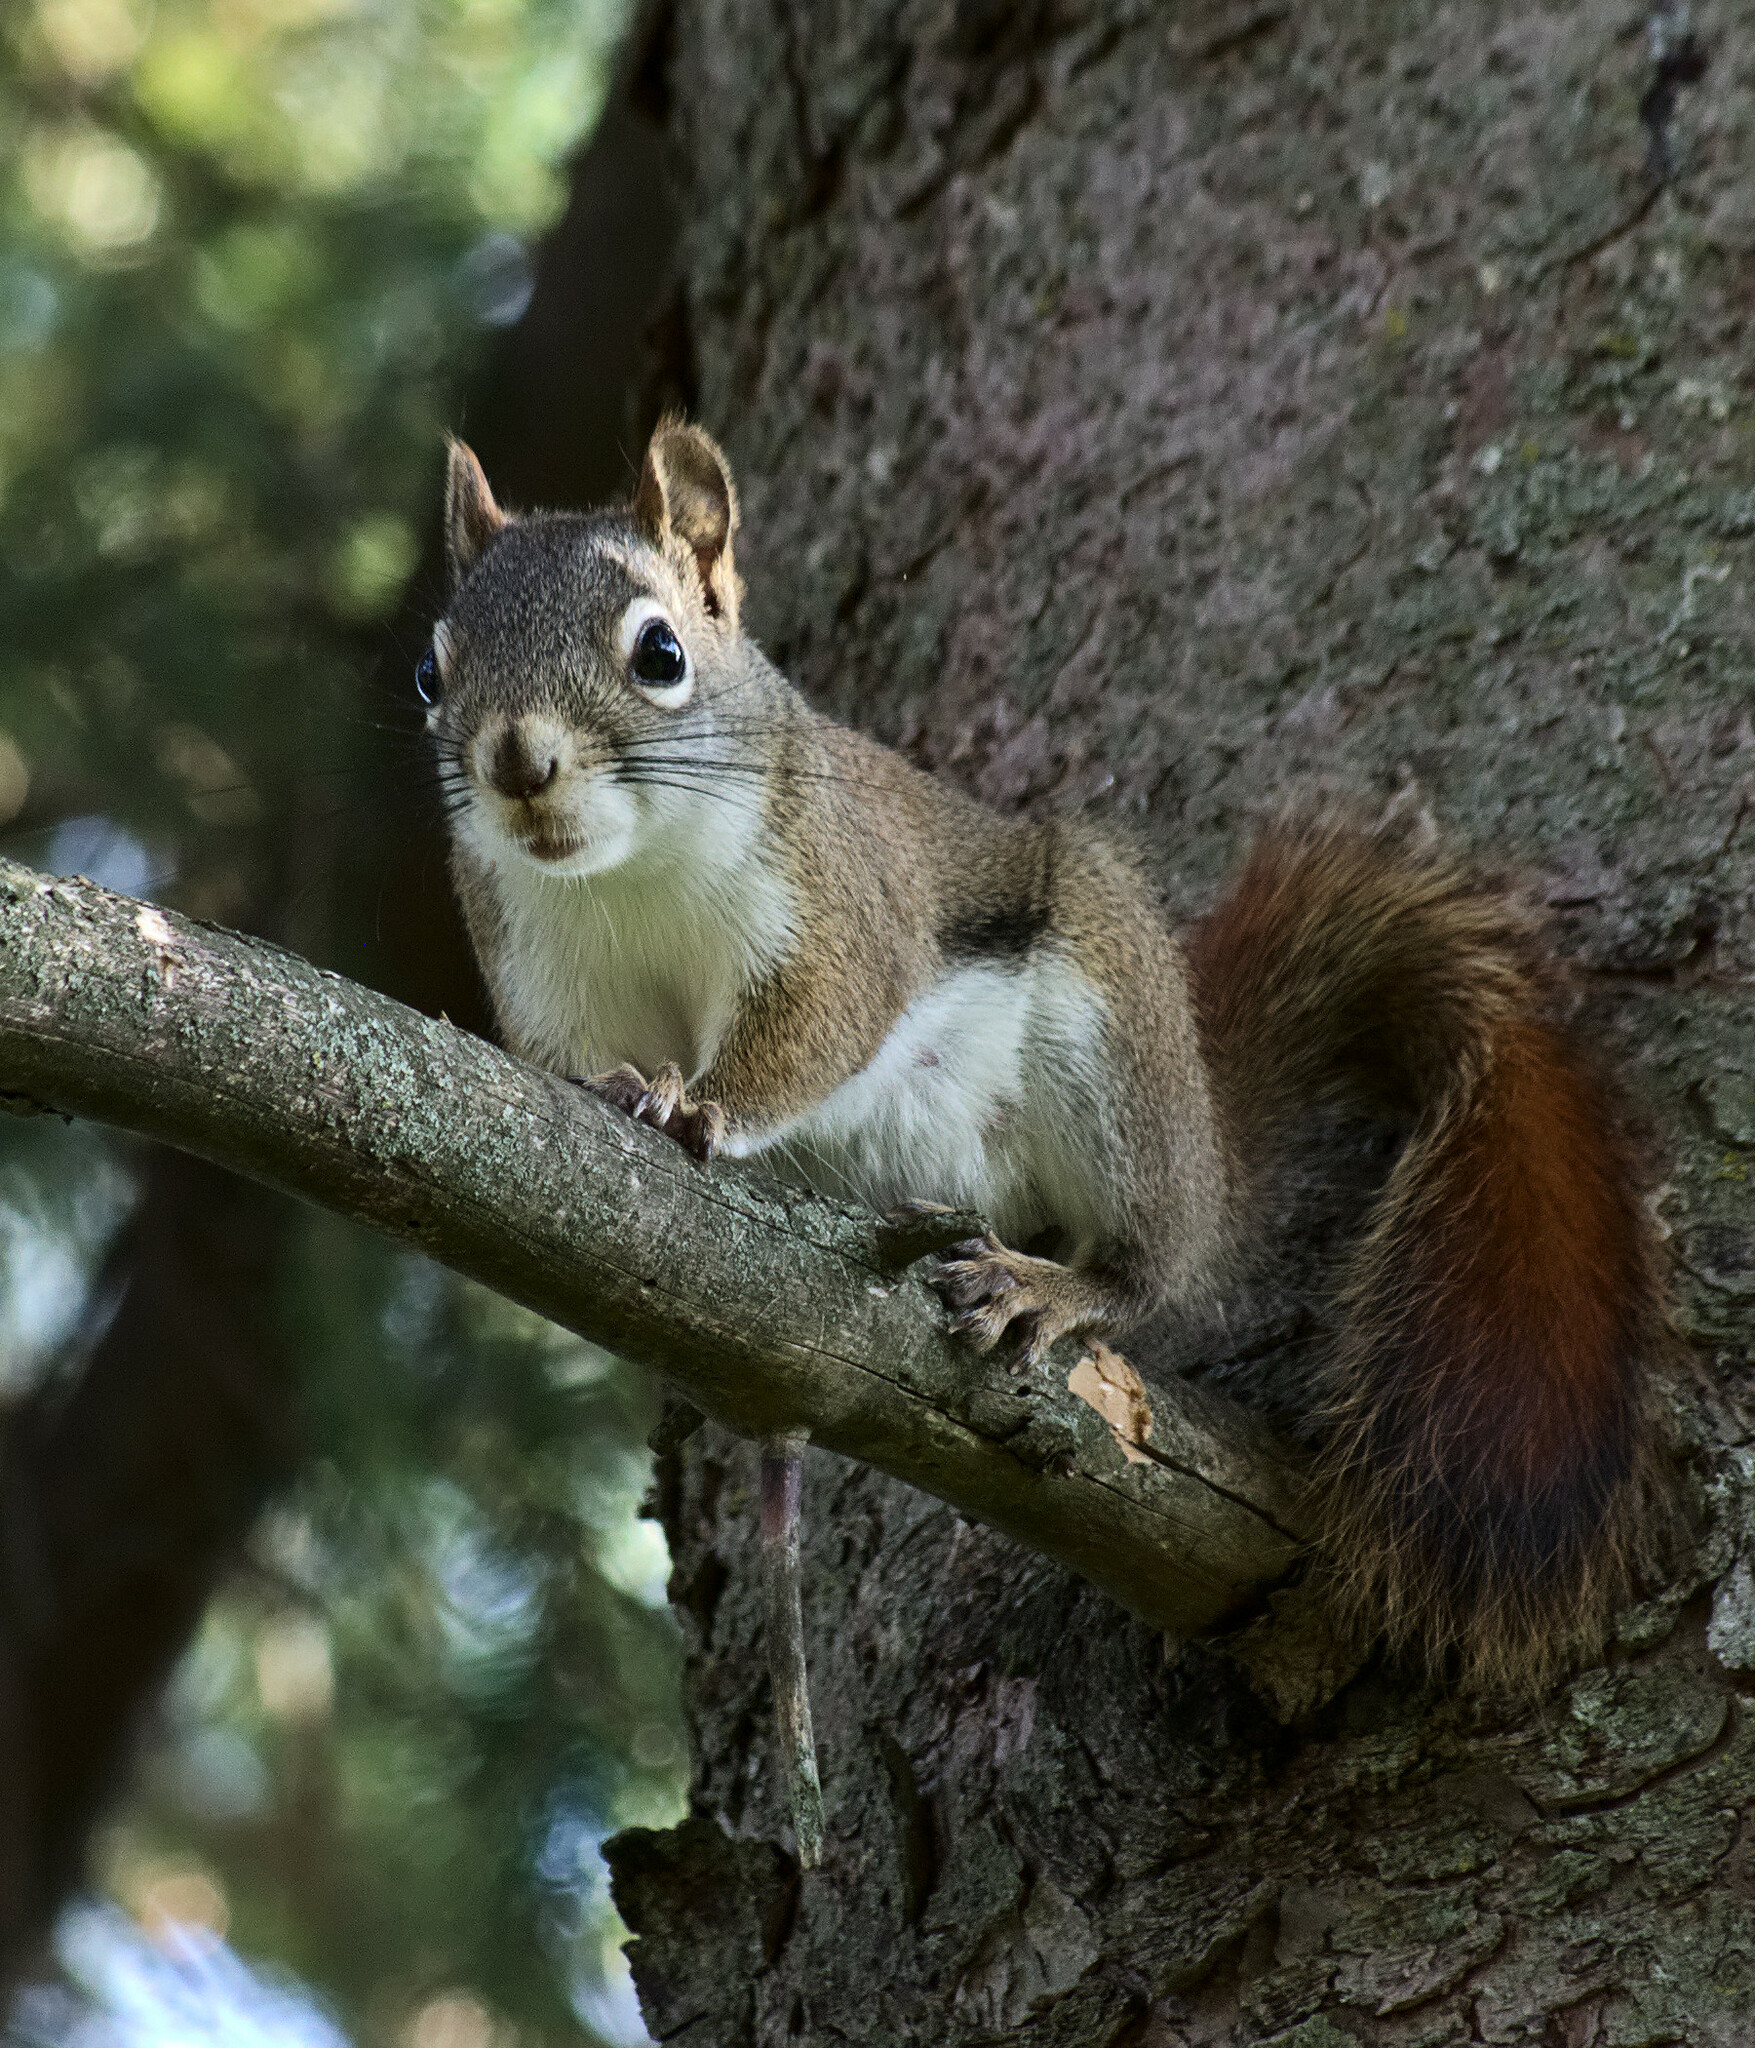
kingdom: Animalia
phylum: Chordata
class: Mammalia
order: Rodentia
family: Sciuridae
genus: Tamiasciurus
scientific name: Tamiasciurus hudsonicus
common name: Red squirrel
